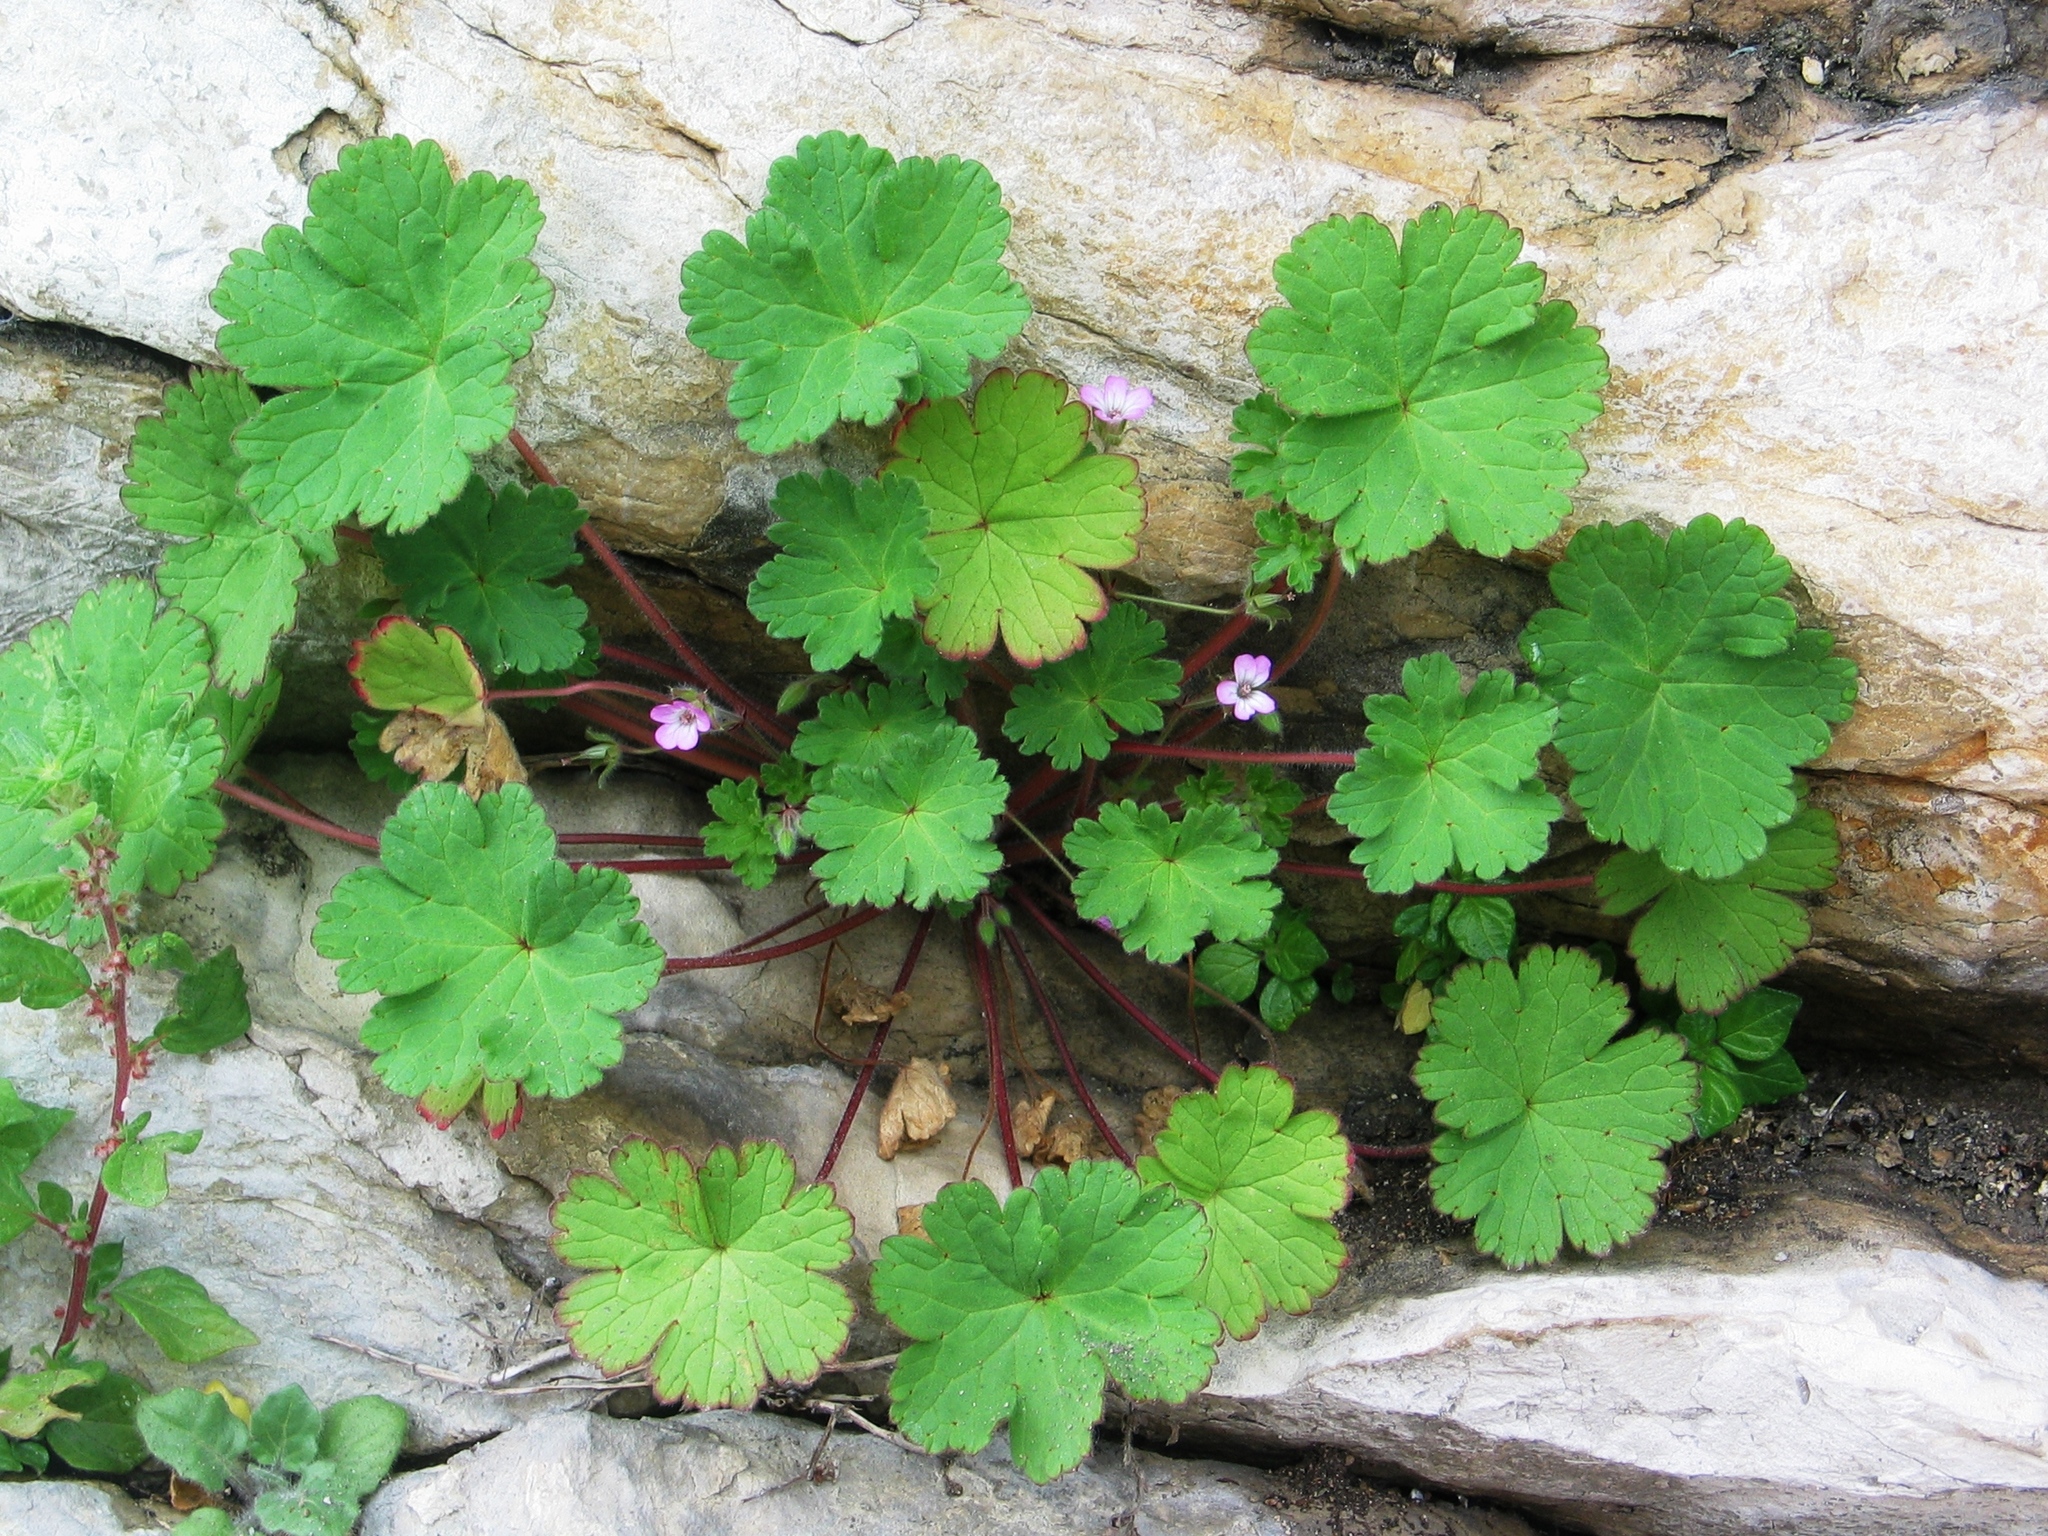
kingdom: Plantae
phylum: Tracheophyta
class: Magnoliopsida
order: Geraniales
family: Geraniaceae
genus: Geranium
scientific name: Geranium rotundifolium
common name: Round-leaved crane's-bill
